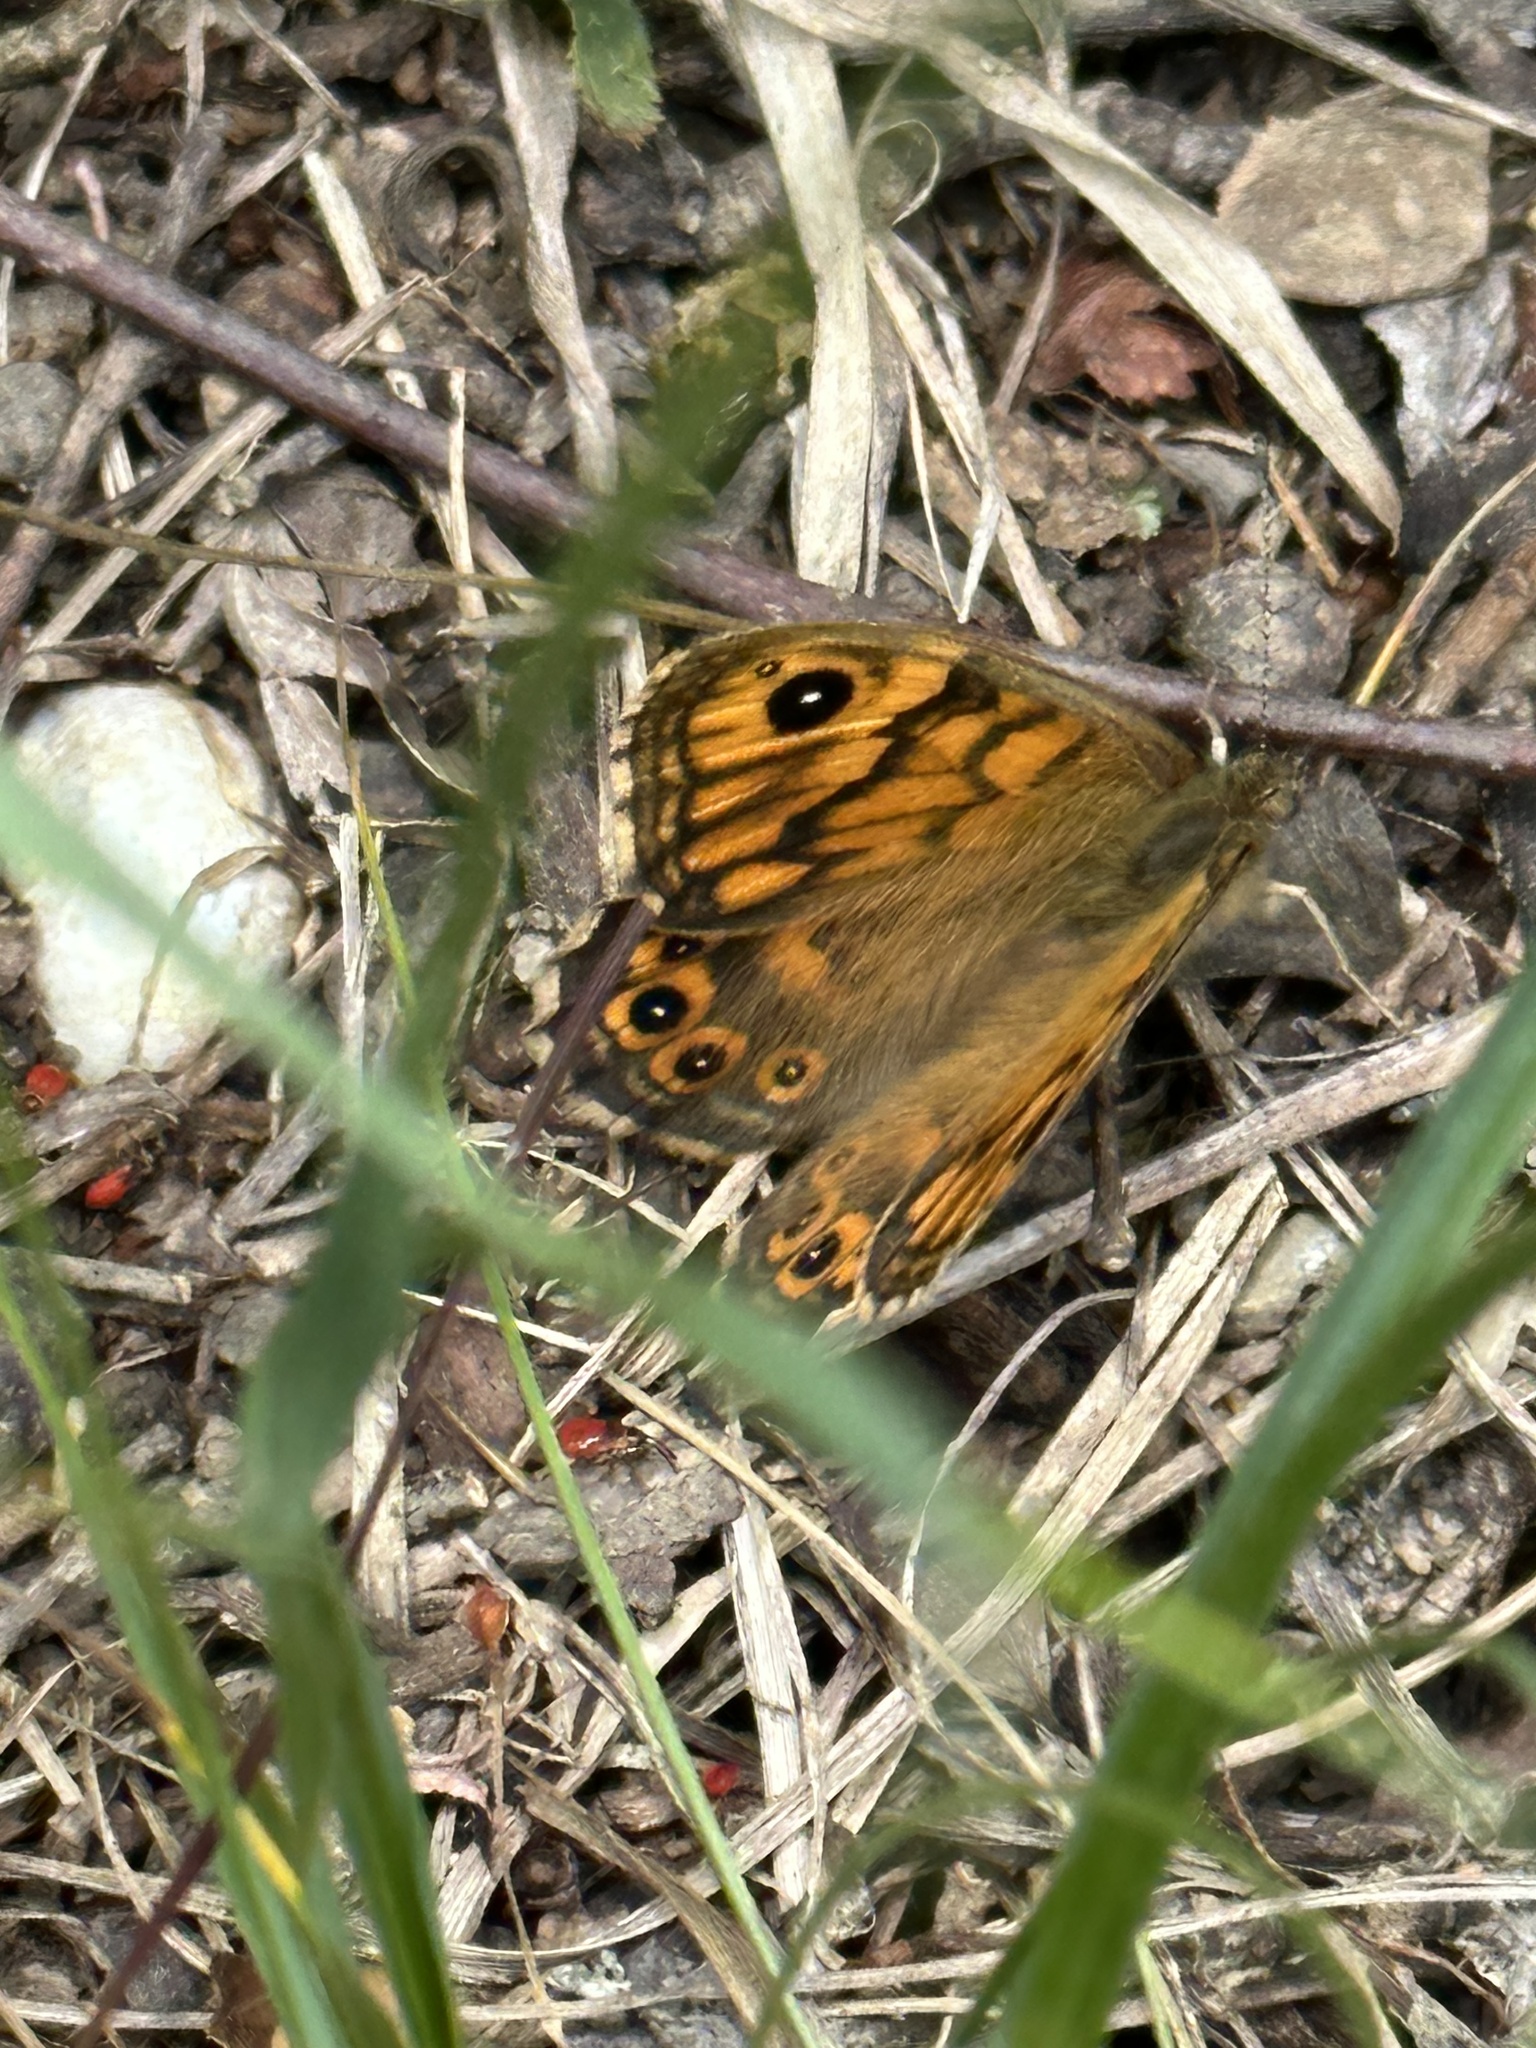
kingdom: Animalia
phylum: Arthropoda
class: Insecta
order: Lepidoptera
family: Nymphalidae
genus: Pararge
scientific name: Pararge Lasiommata megera
